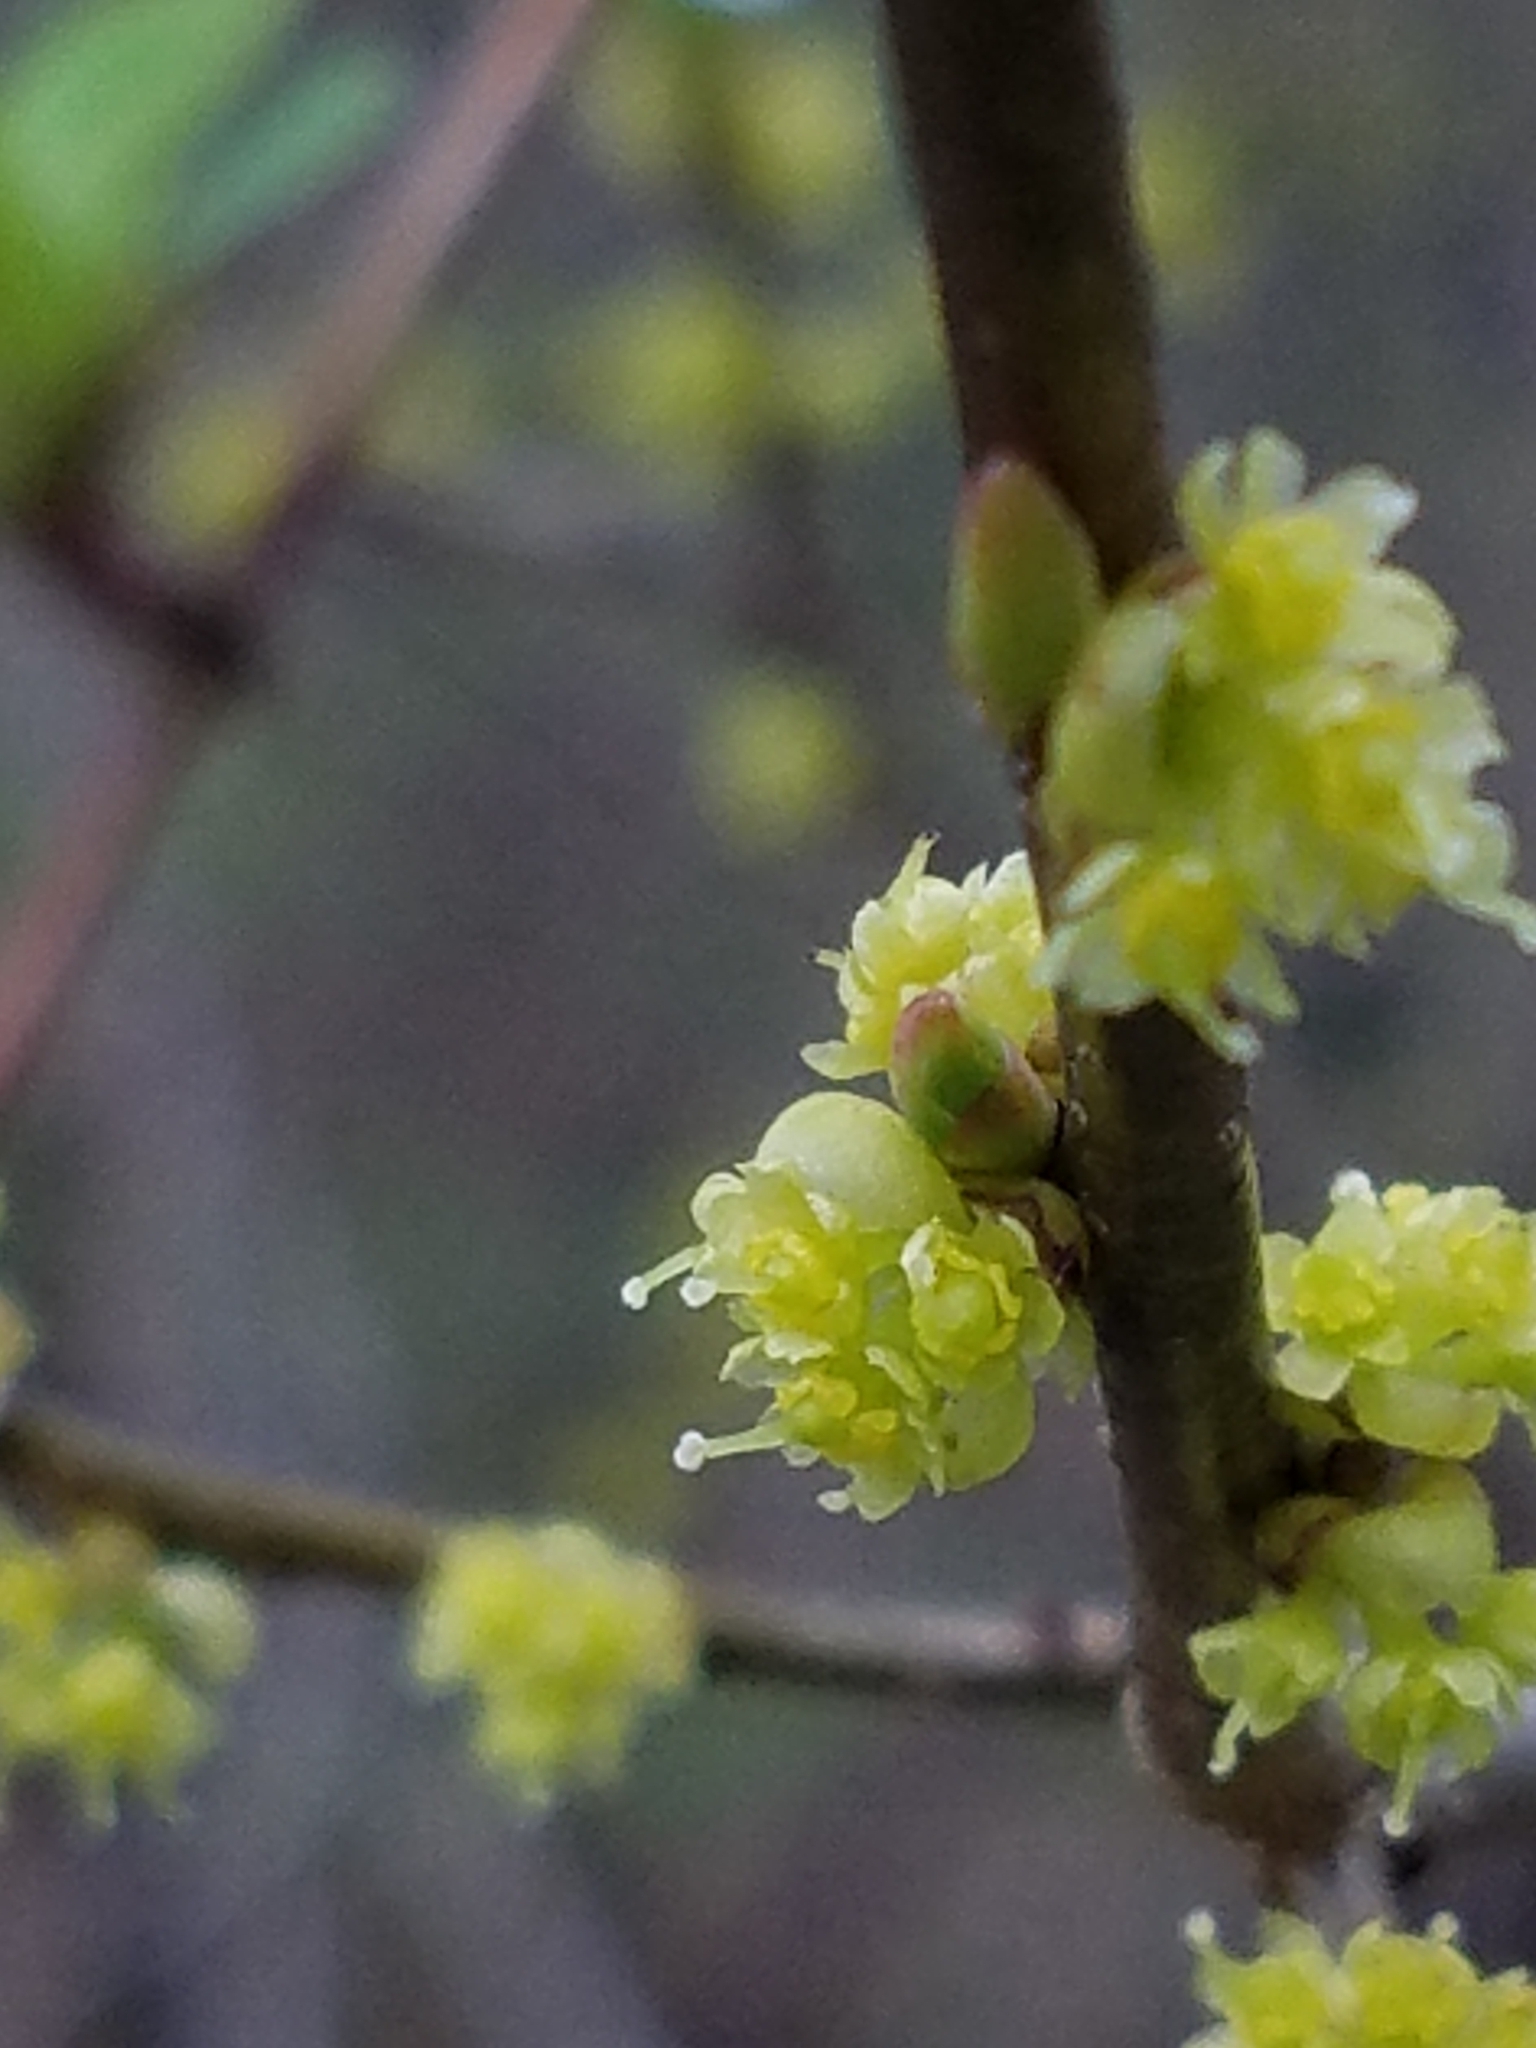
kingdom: Plantae
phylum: Tracheophyta
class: Magnoliopsida
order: Laurales
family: Lauraceae
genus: Lindera
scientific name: Lindera benzoin
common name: Spicebush
